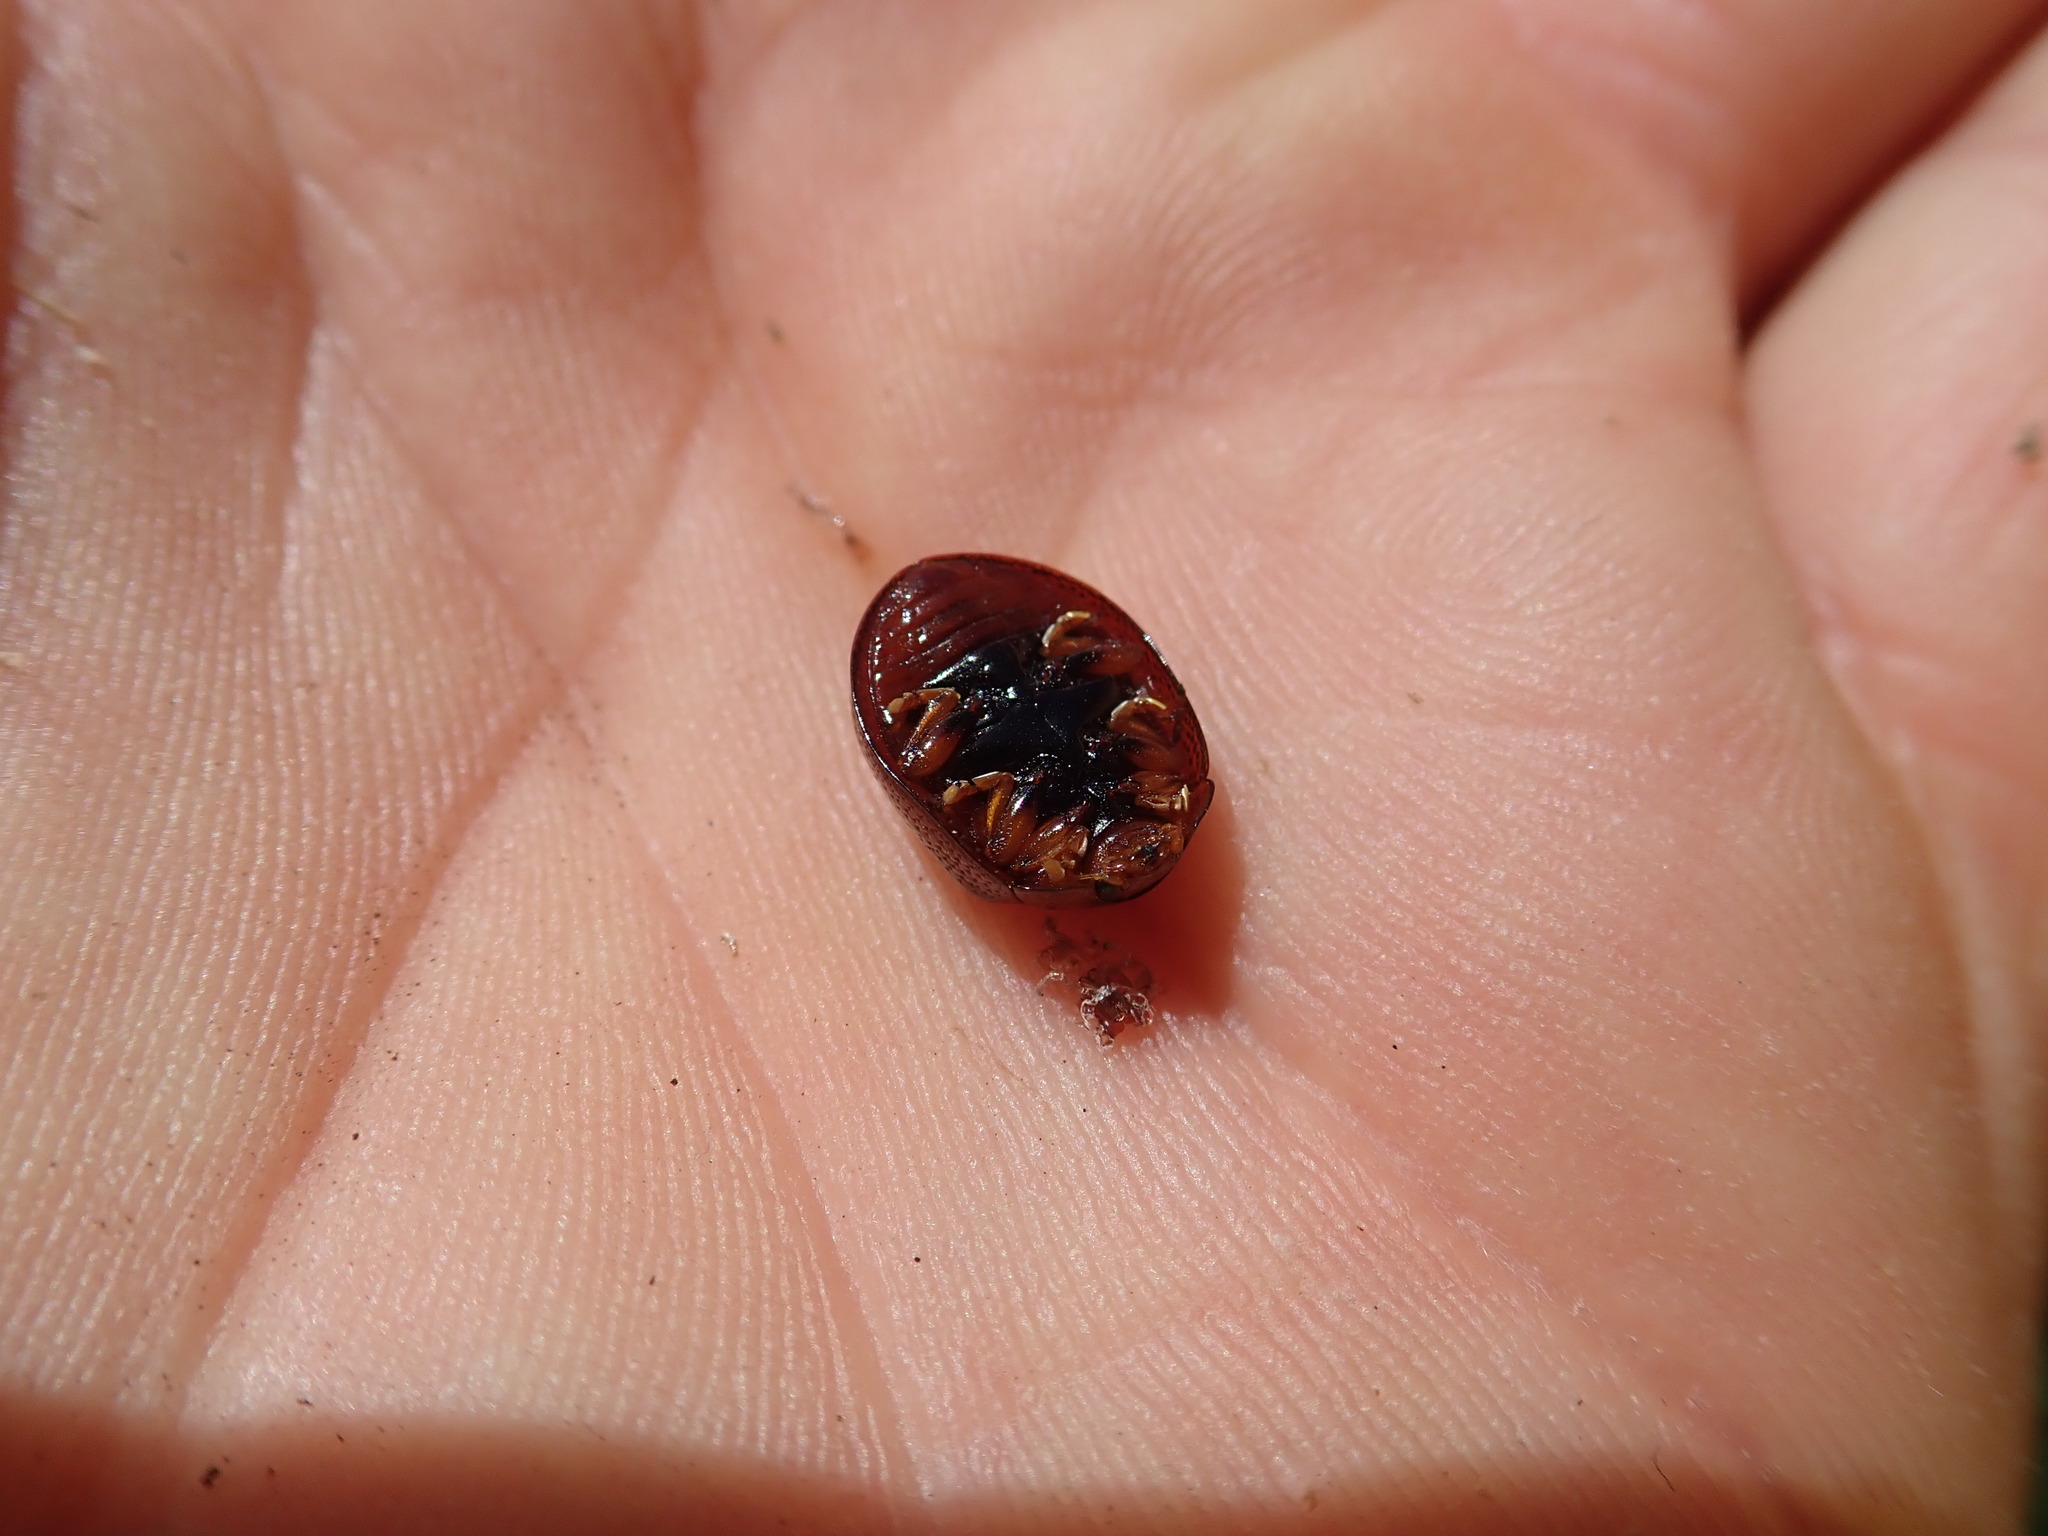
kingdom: Animalia
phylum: Arthropoda
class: Insecta
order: Coleoptera
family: Chrysomelidae
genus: Dicranosterna
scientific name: Dicranosterna
